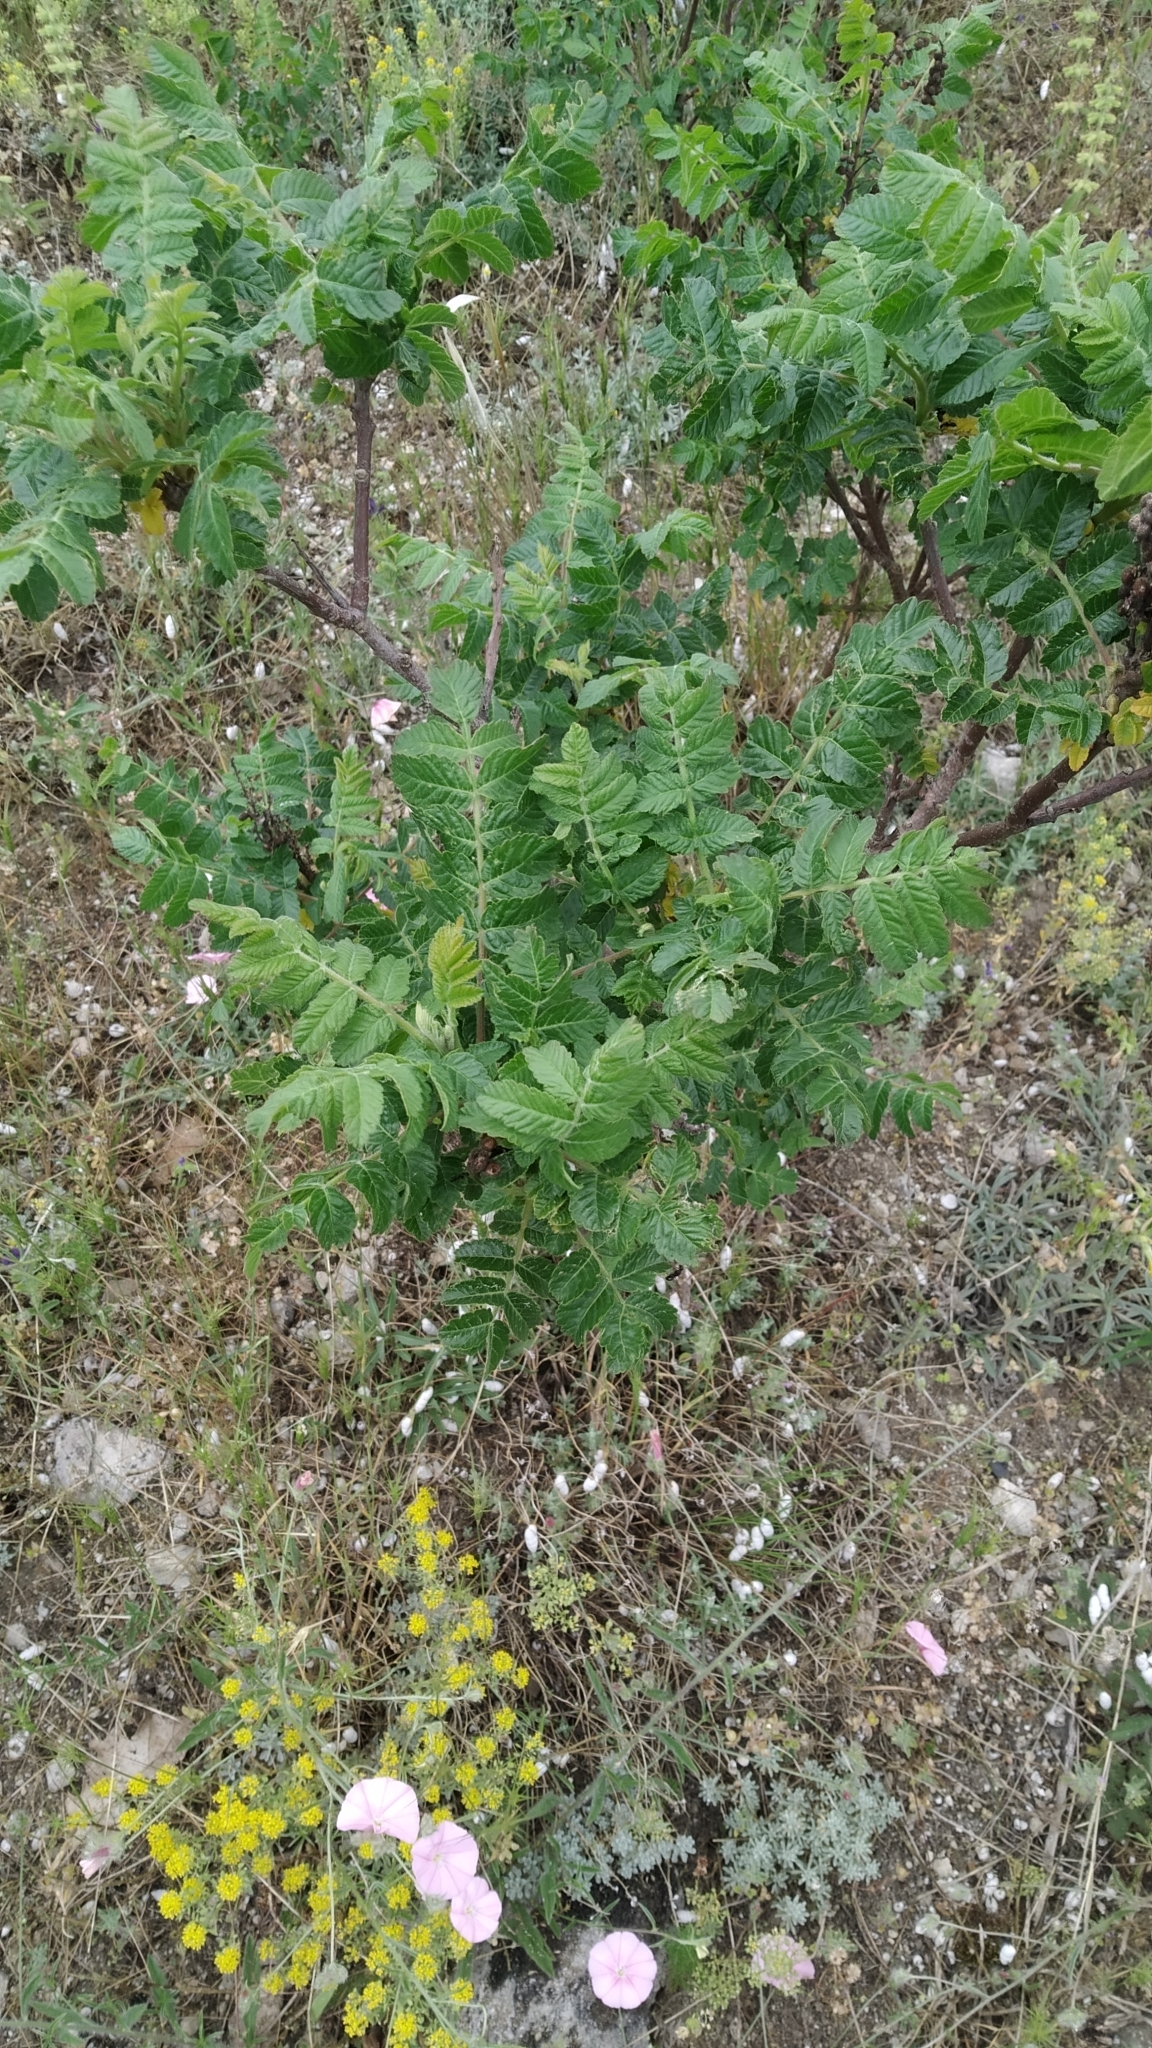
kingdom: Plantae
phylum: Tracheophyta
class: Magnoliopsida
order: Sapindales
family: Anacardiaceae
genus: Rhus
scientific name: Rhus coriaria
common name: Tanner's sumach
